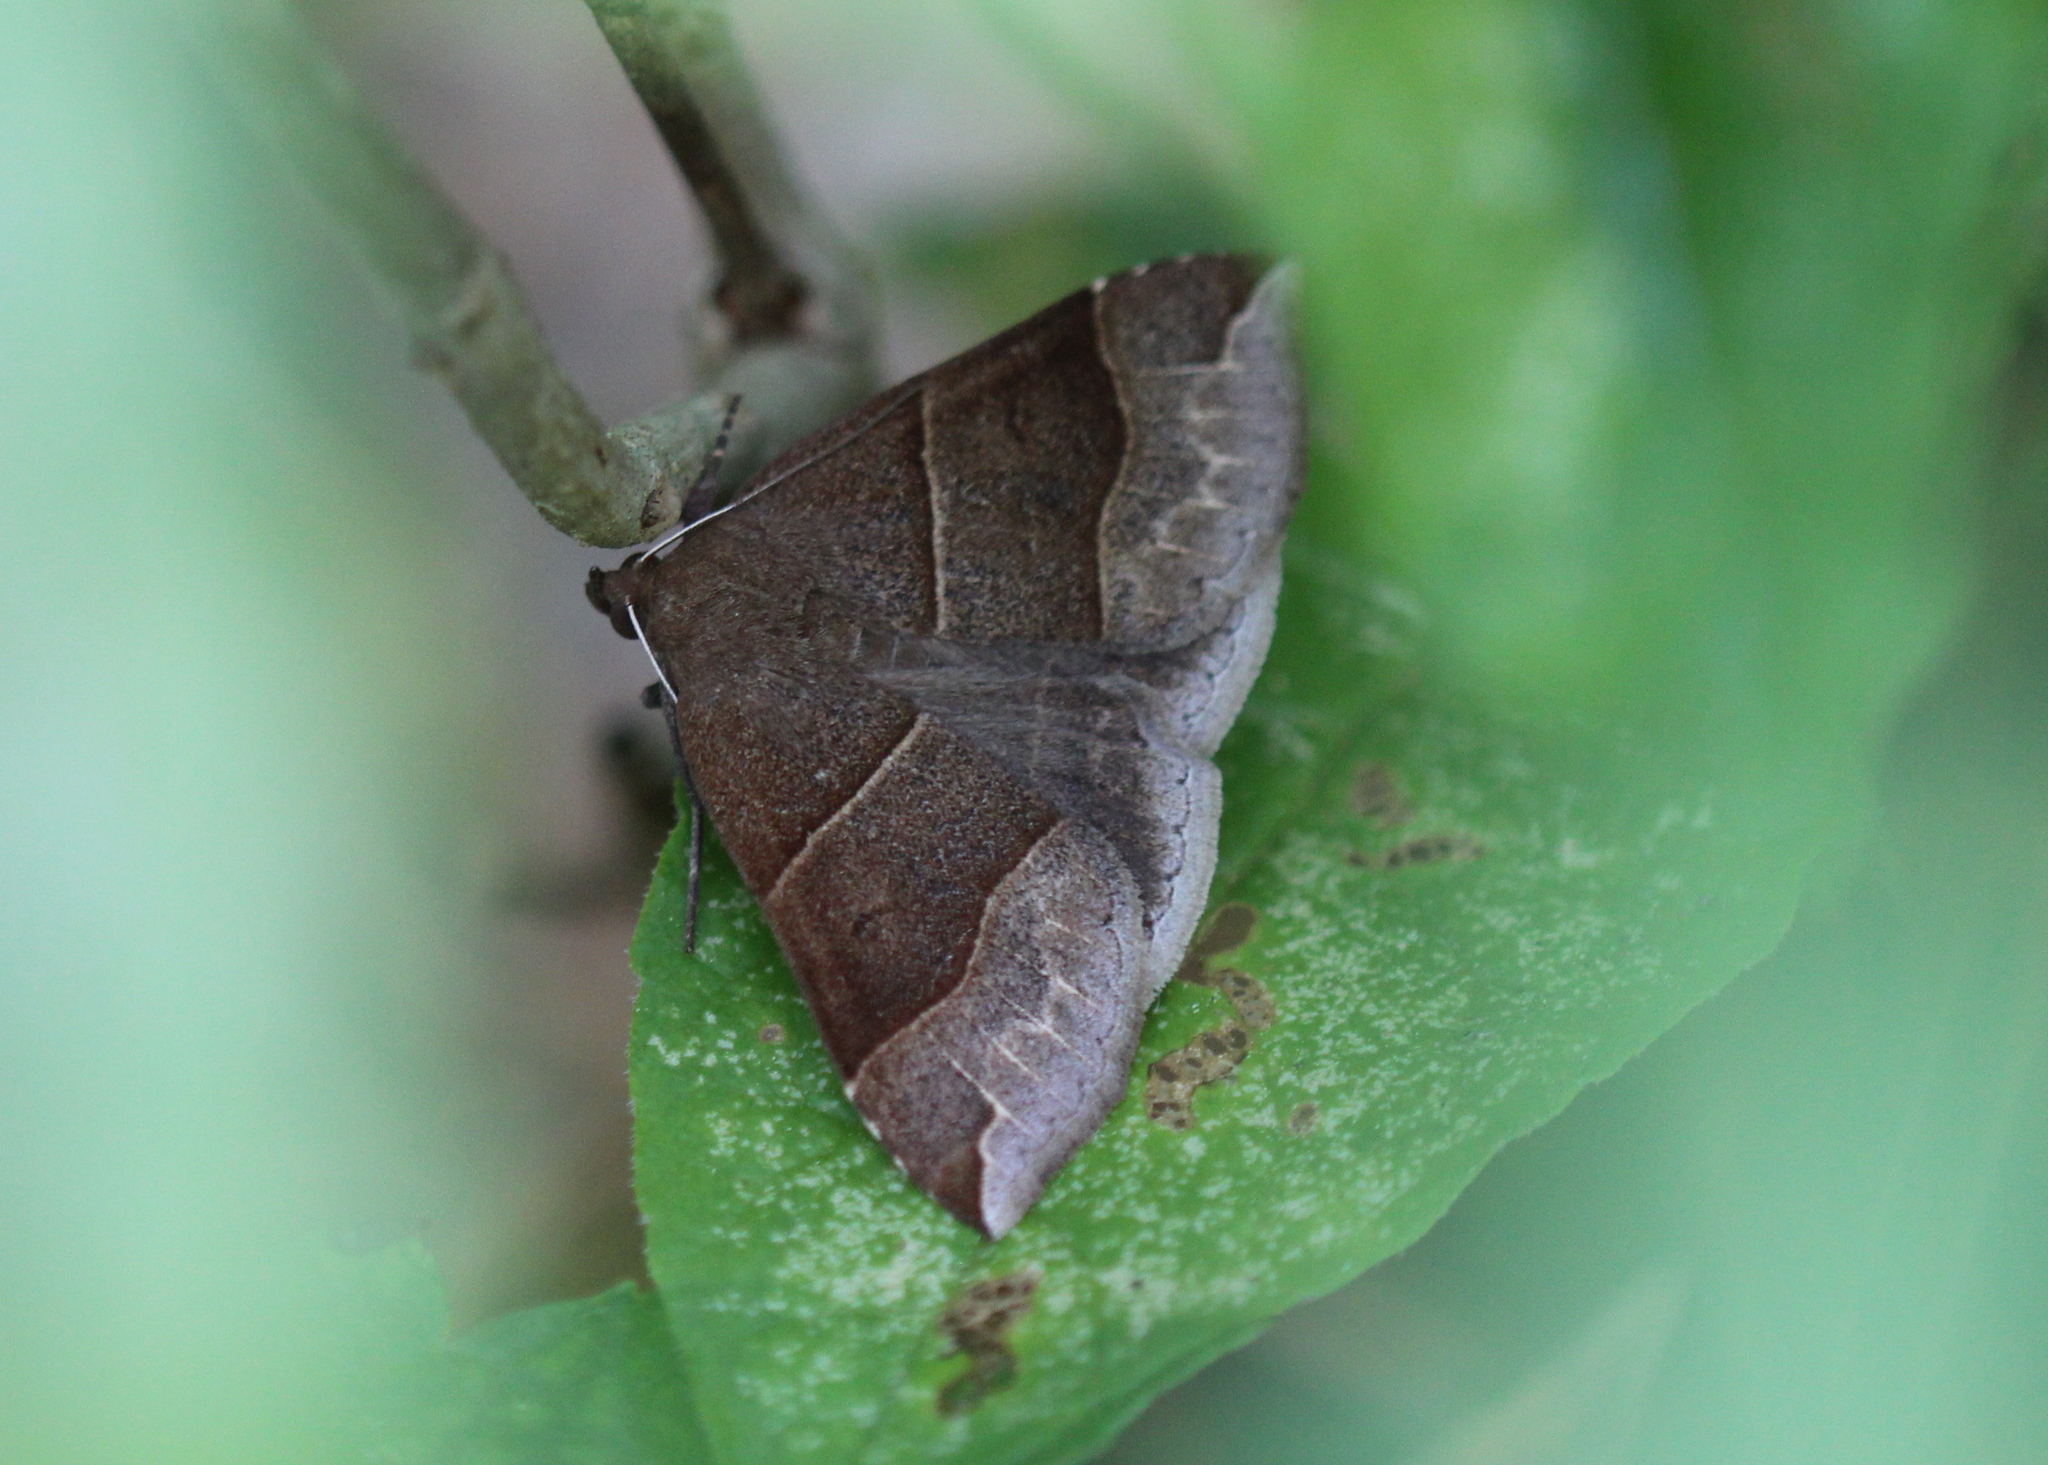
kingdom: Animalia
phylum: Arthropoda
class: Insecta
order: Lepidoptera
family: Erebidae
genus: Parallelia
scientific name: Parallelia bistriaris
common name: Maple looper moth
